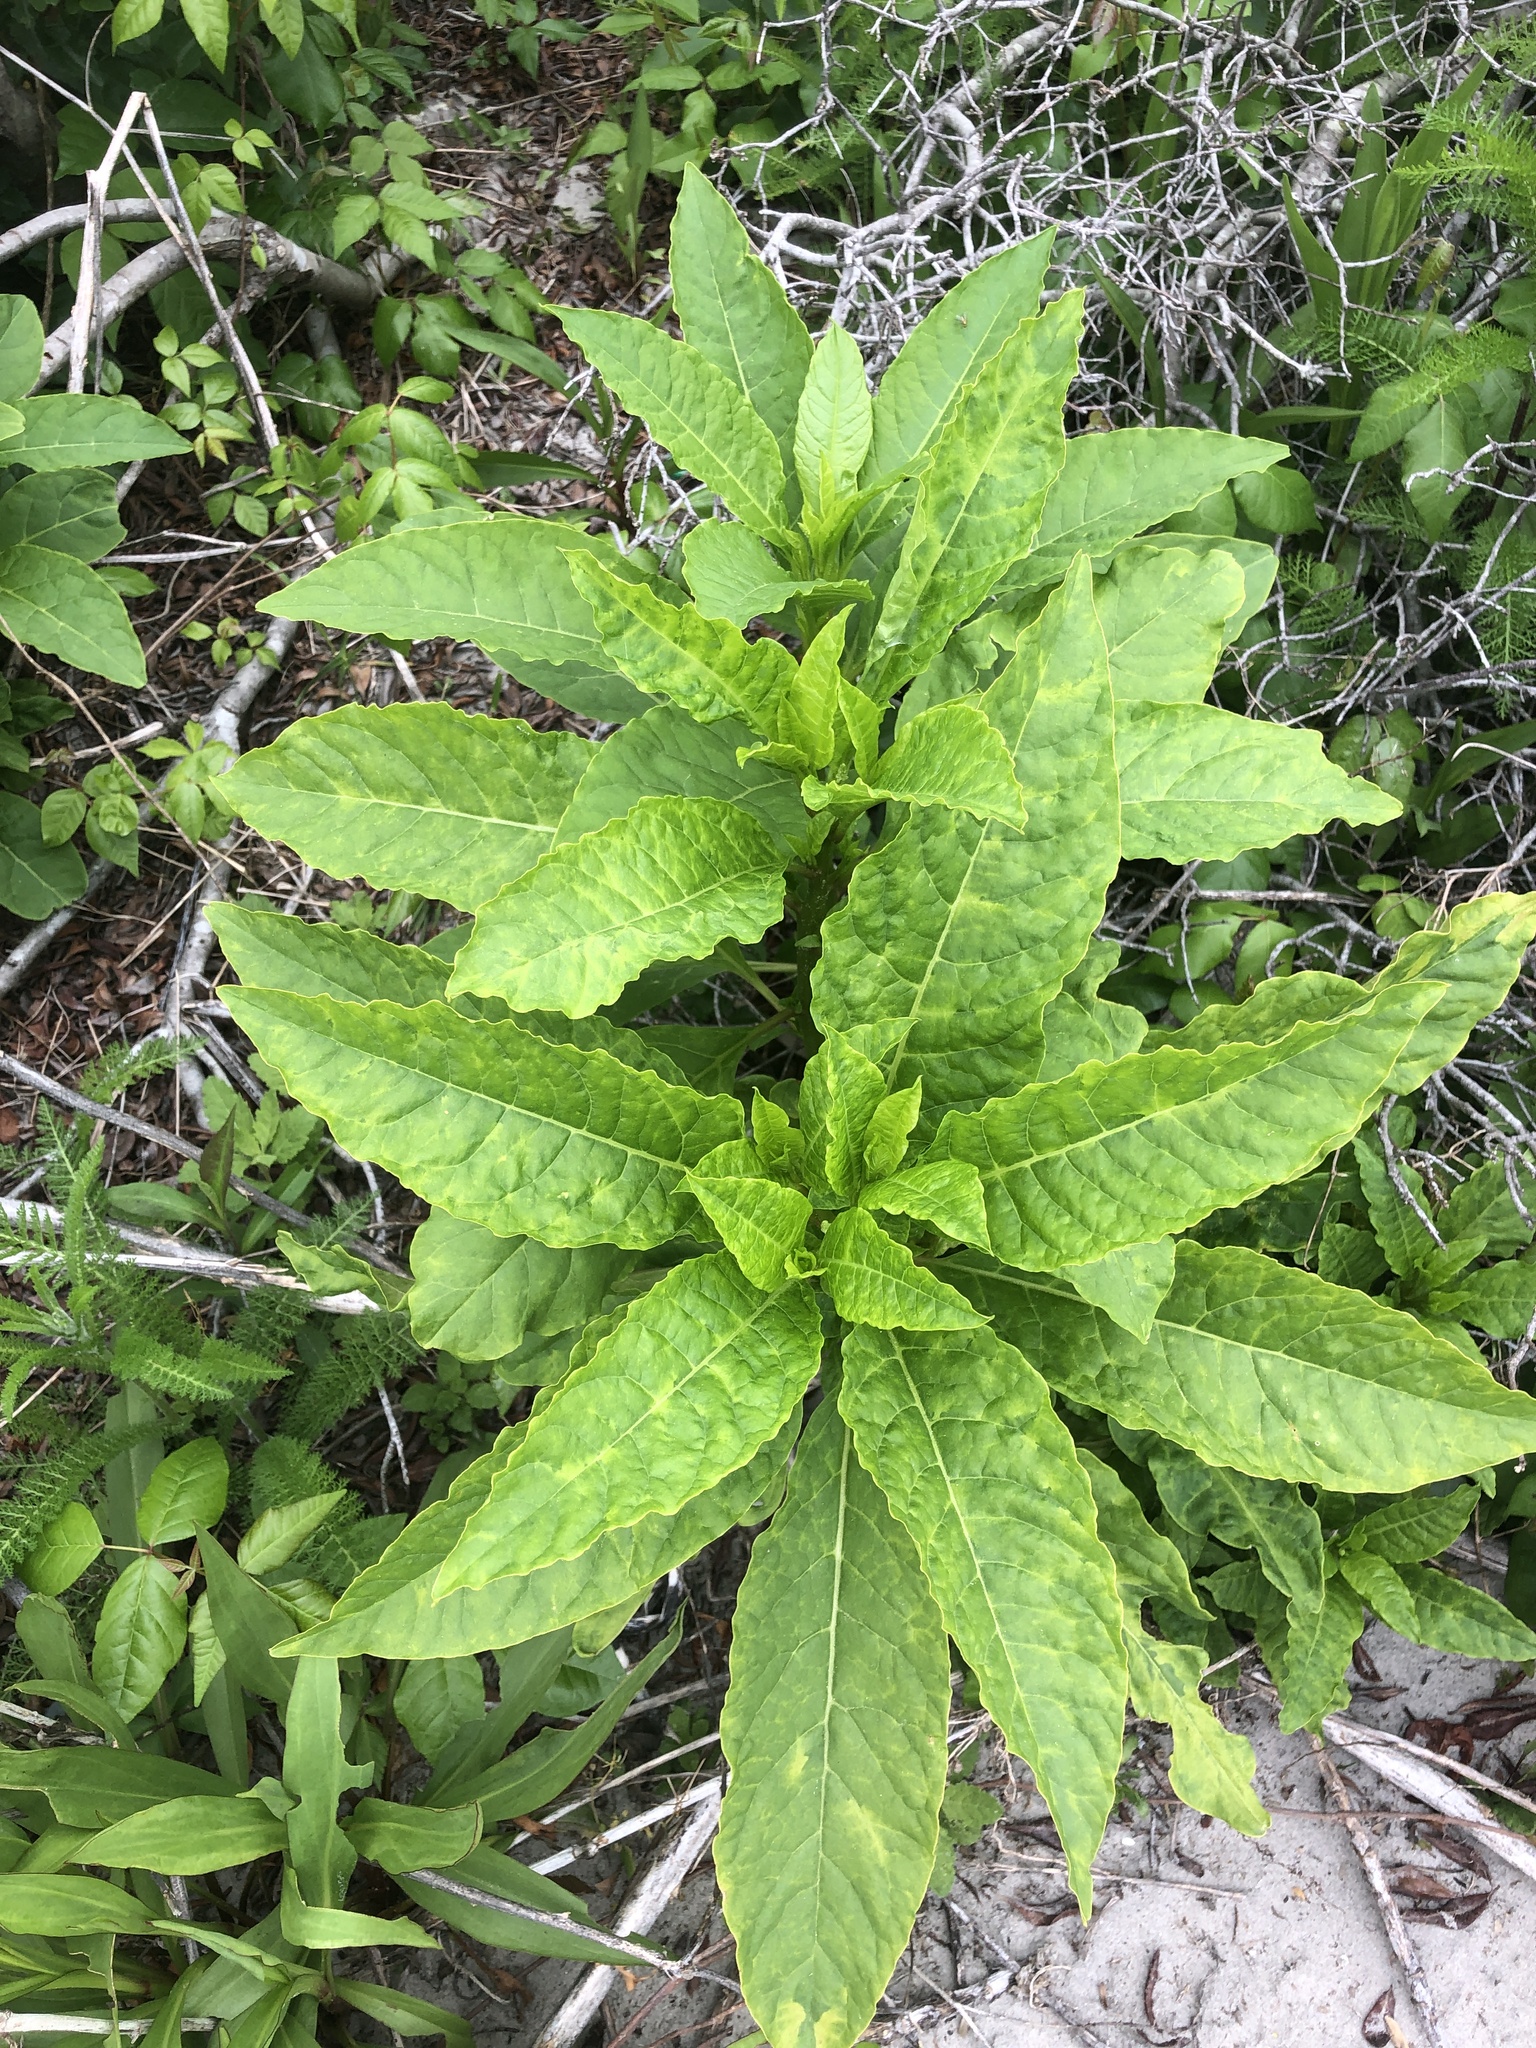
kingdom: Plantae
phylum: Tracheophyta
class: Magnoliopsida
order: Caryophyllales
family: Phytolaccaceae
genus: Phytolacca
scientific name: Phytolacca americana
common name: American pokeweed
